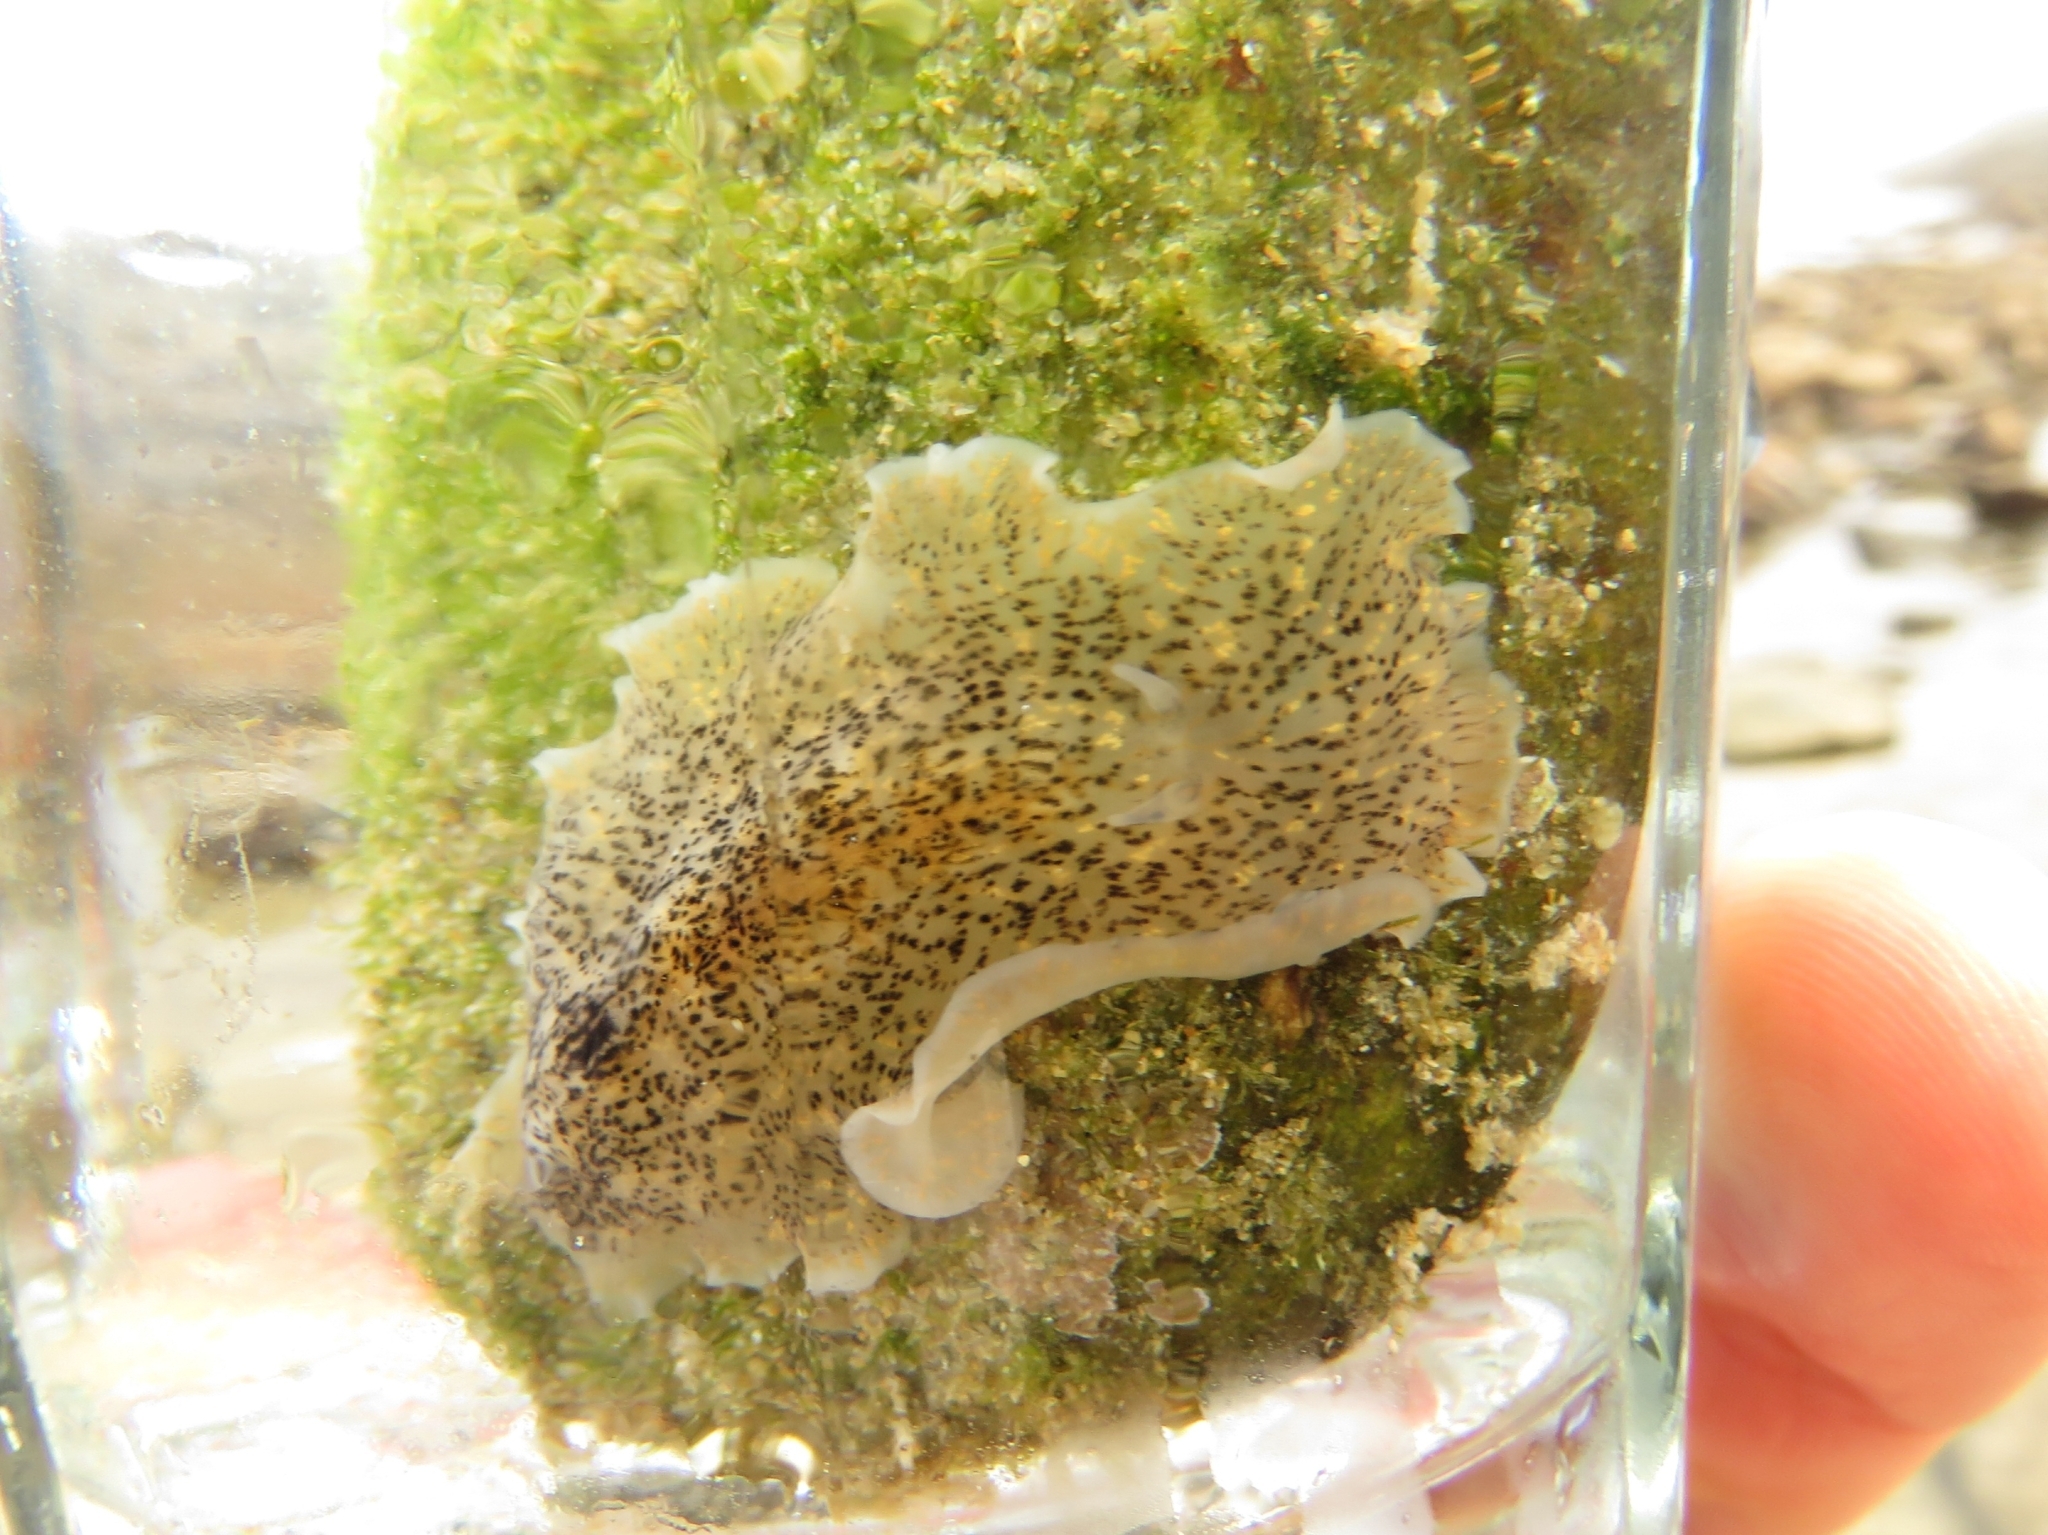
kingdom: Animalia
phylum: Platyhelminthes
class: Turbellaria
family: Planoceridae
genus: Planocera
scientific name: Planocera gilchristi
